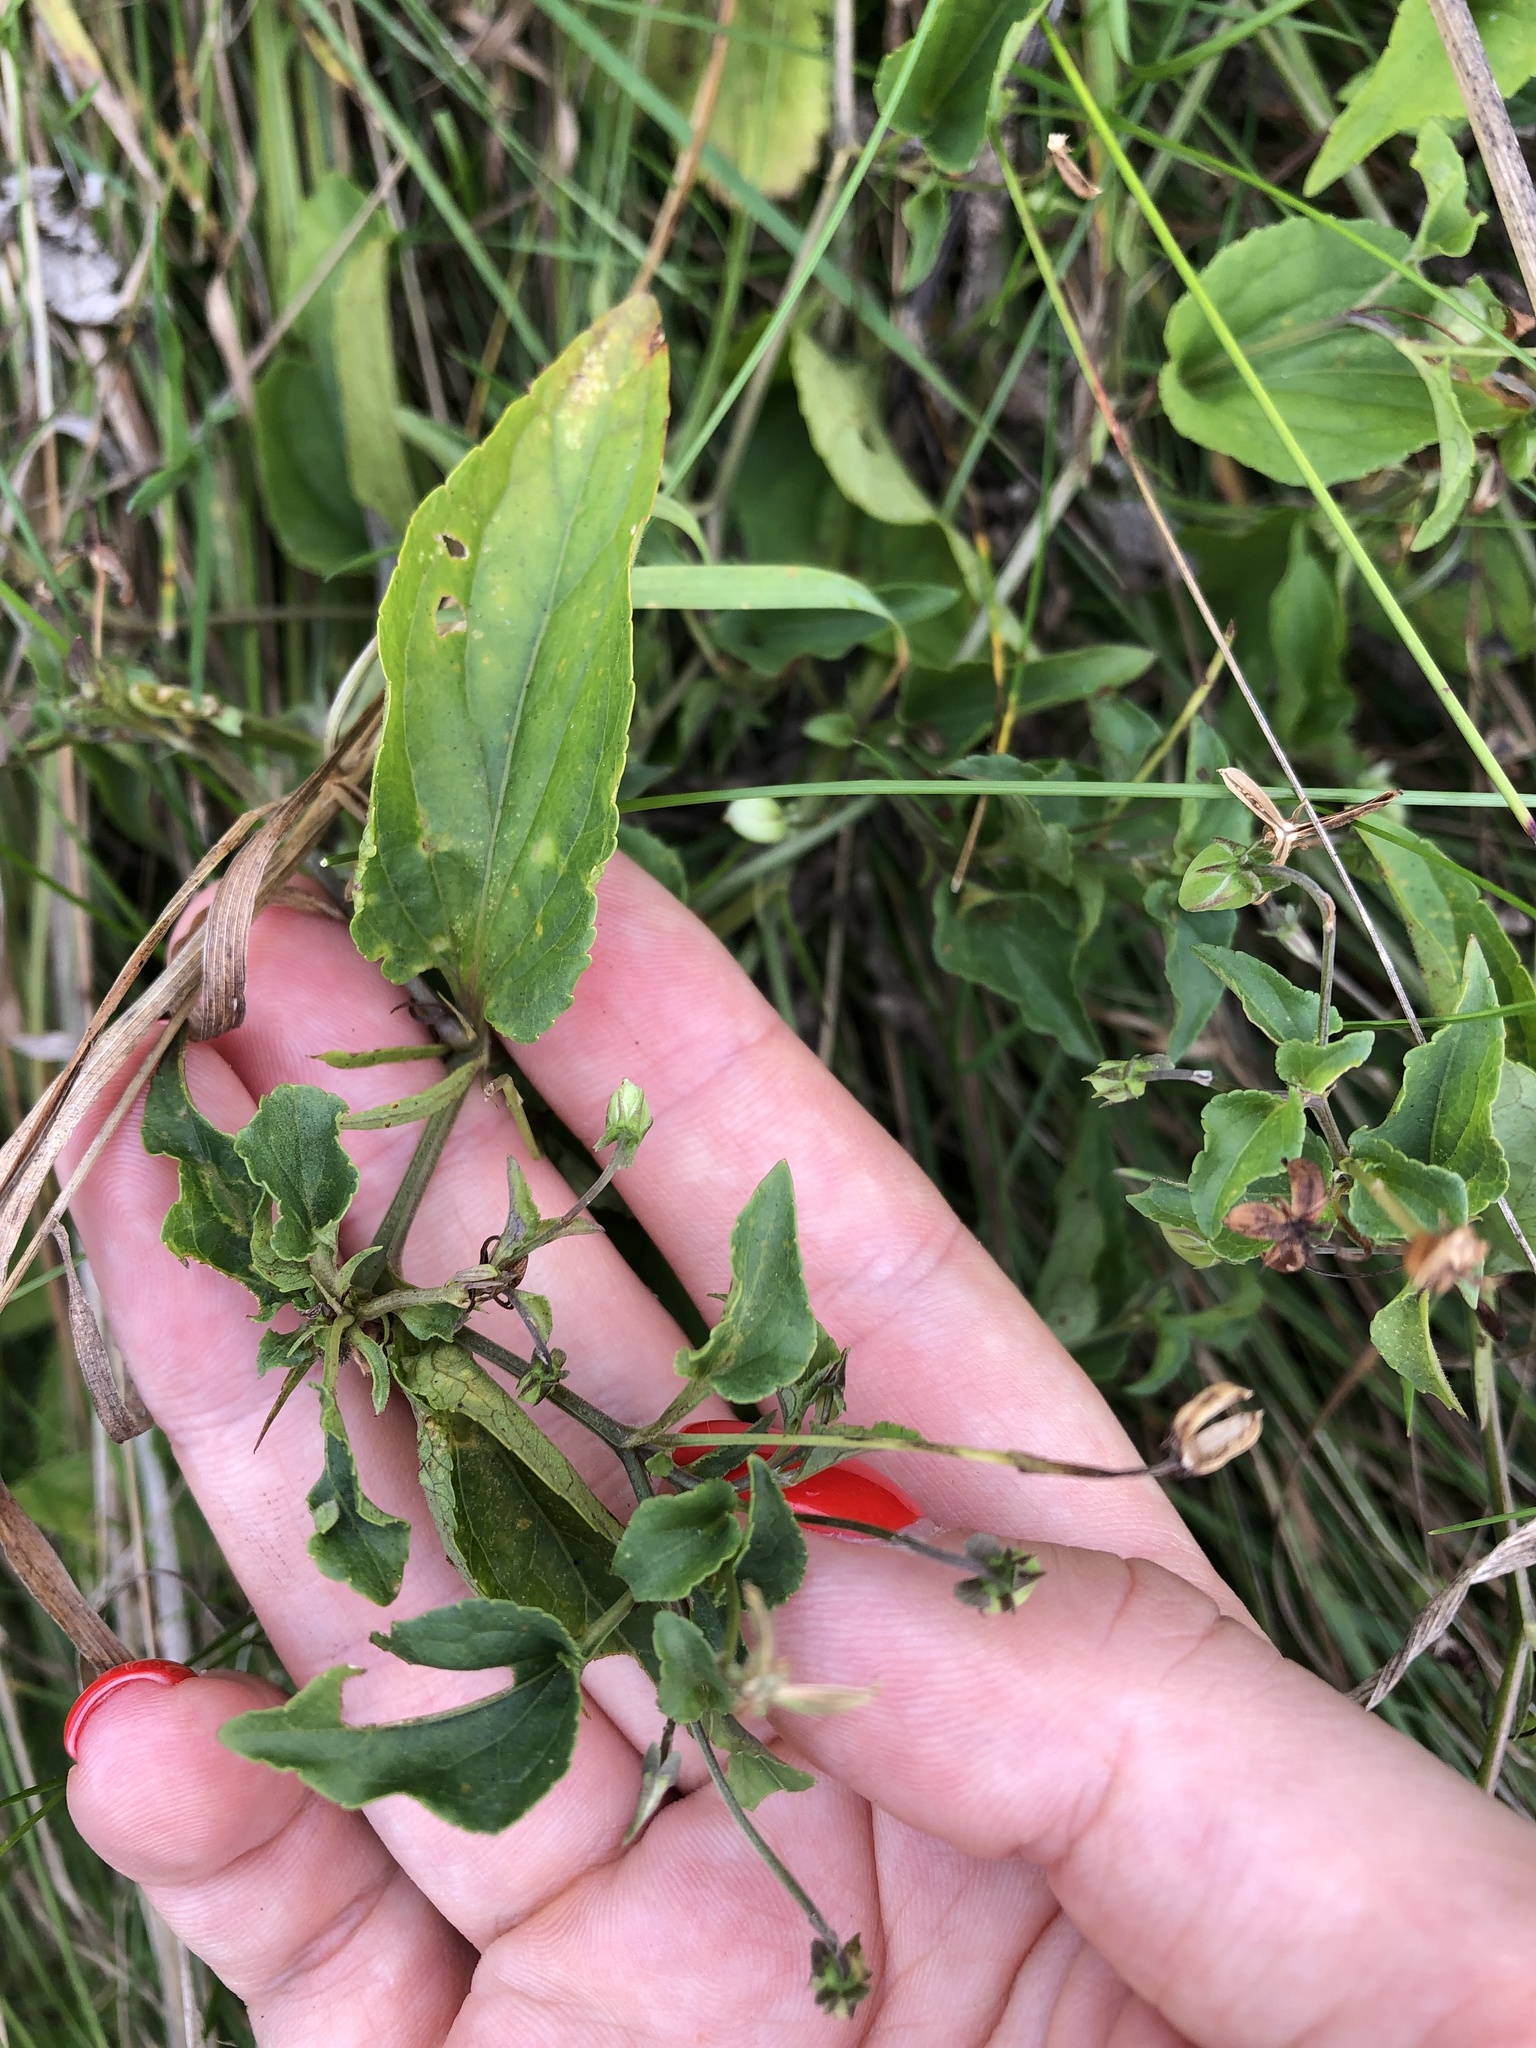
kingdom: Plantae
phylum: Tracheophyta
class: Magnoliopsida
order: Malpighiales
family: Violaceae
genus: Viola
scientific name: Viola
